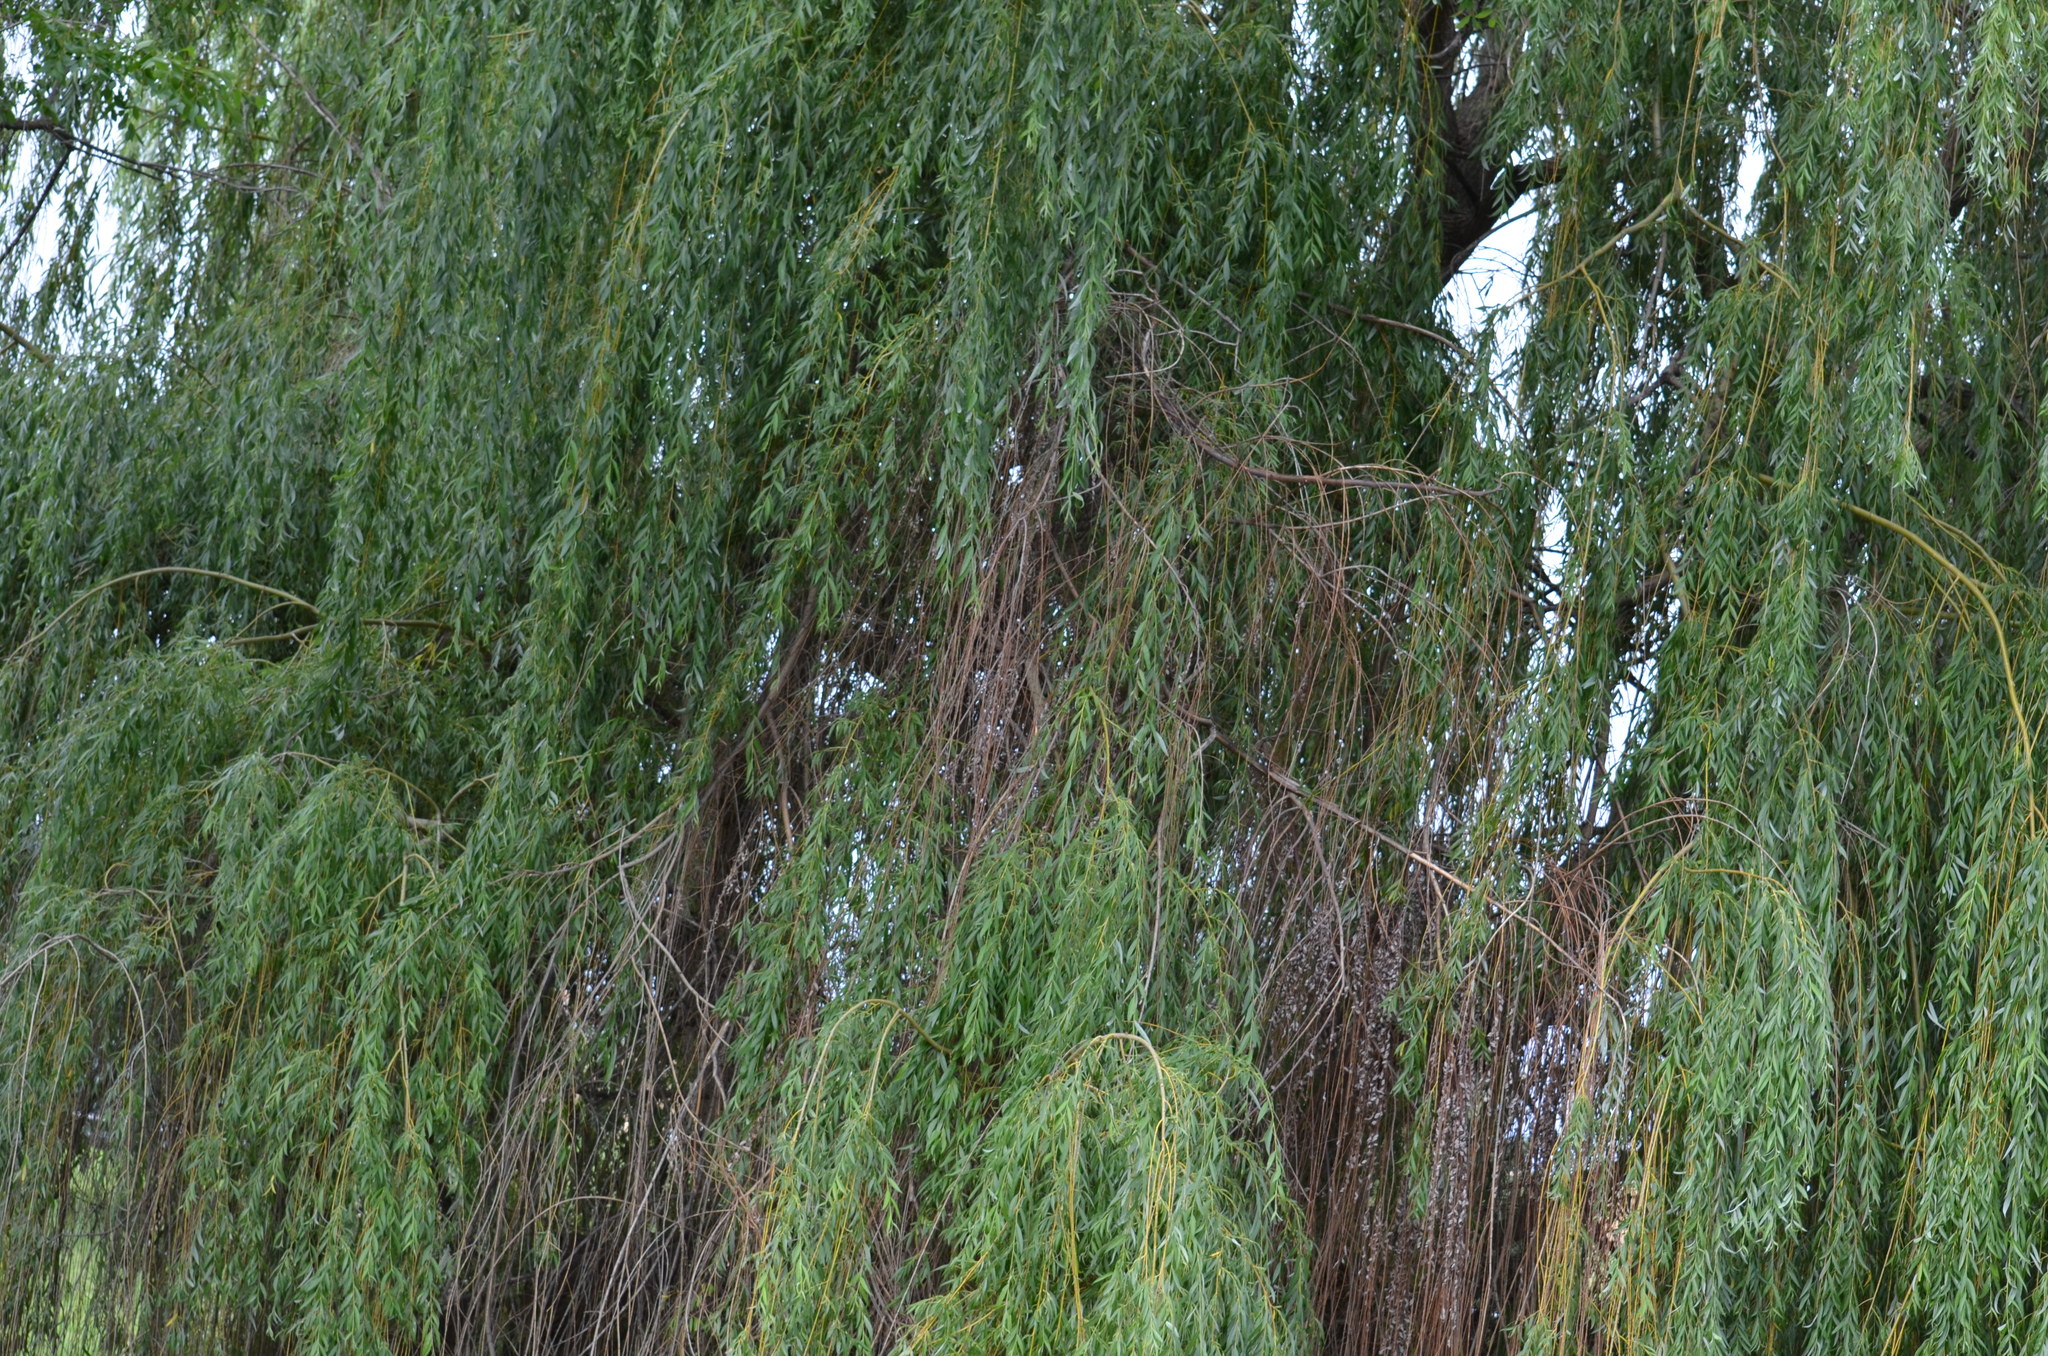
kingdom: Plantae
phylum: Tracheophyta
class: Magnoliopsida
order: Malpighiales
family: Salicaceae
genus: Salix
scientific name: Salix pendulina
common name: Wisconsin weeping willow
